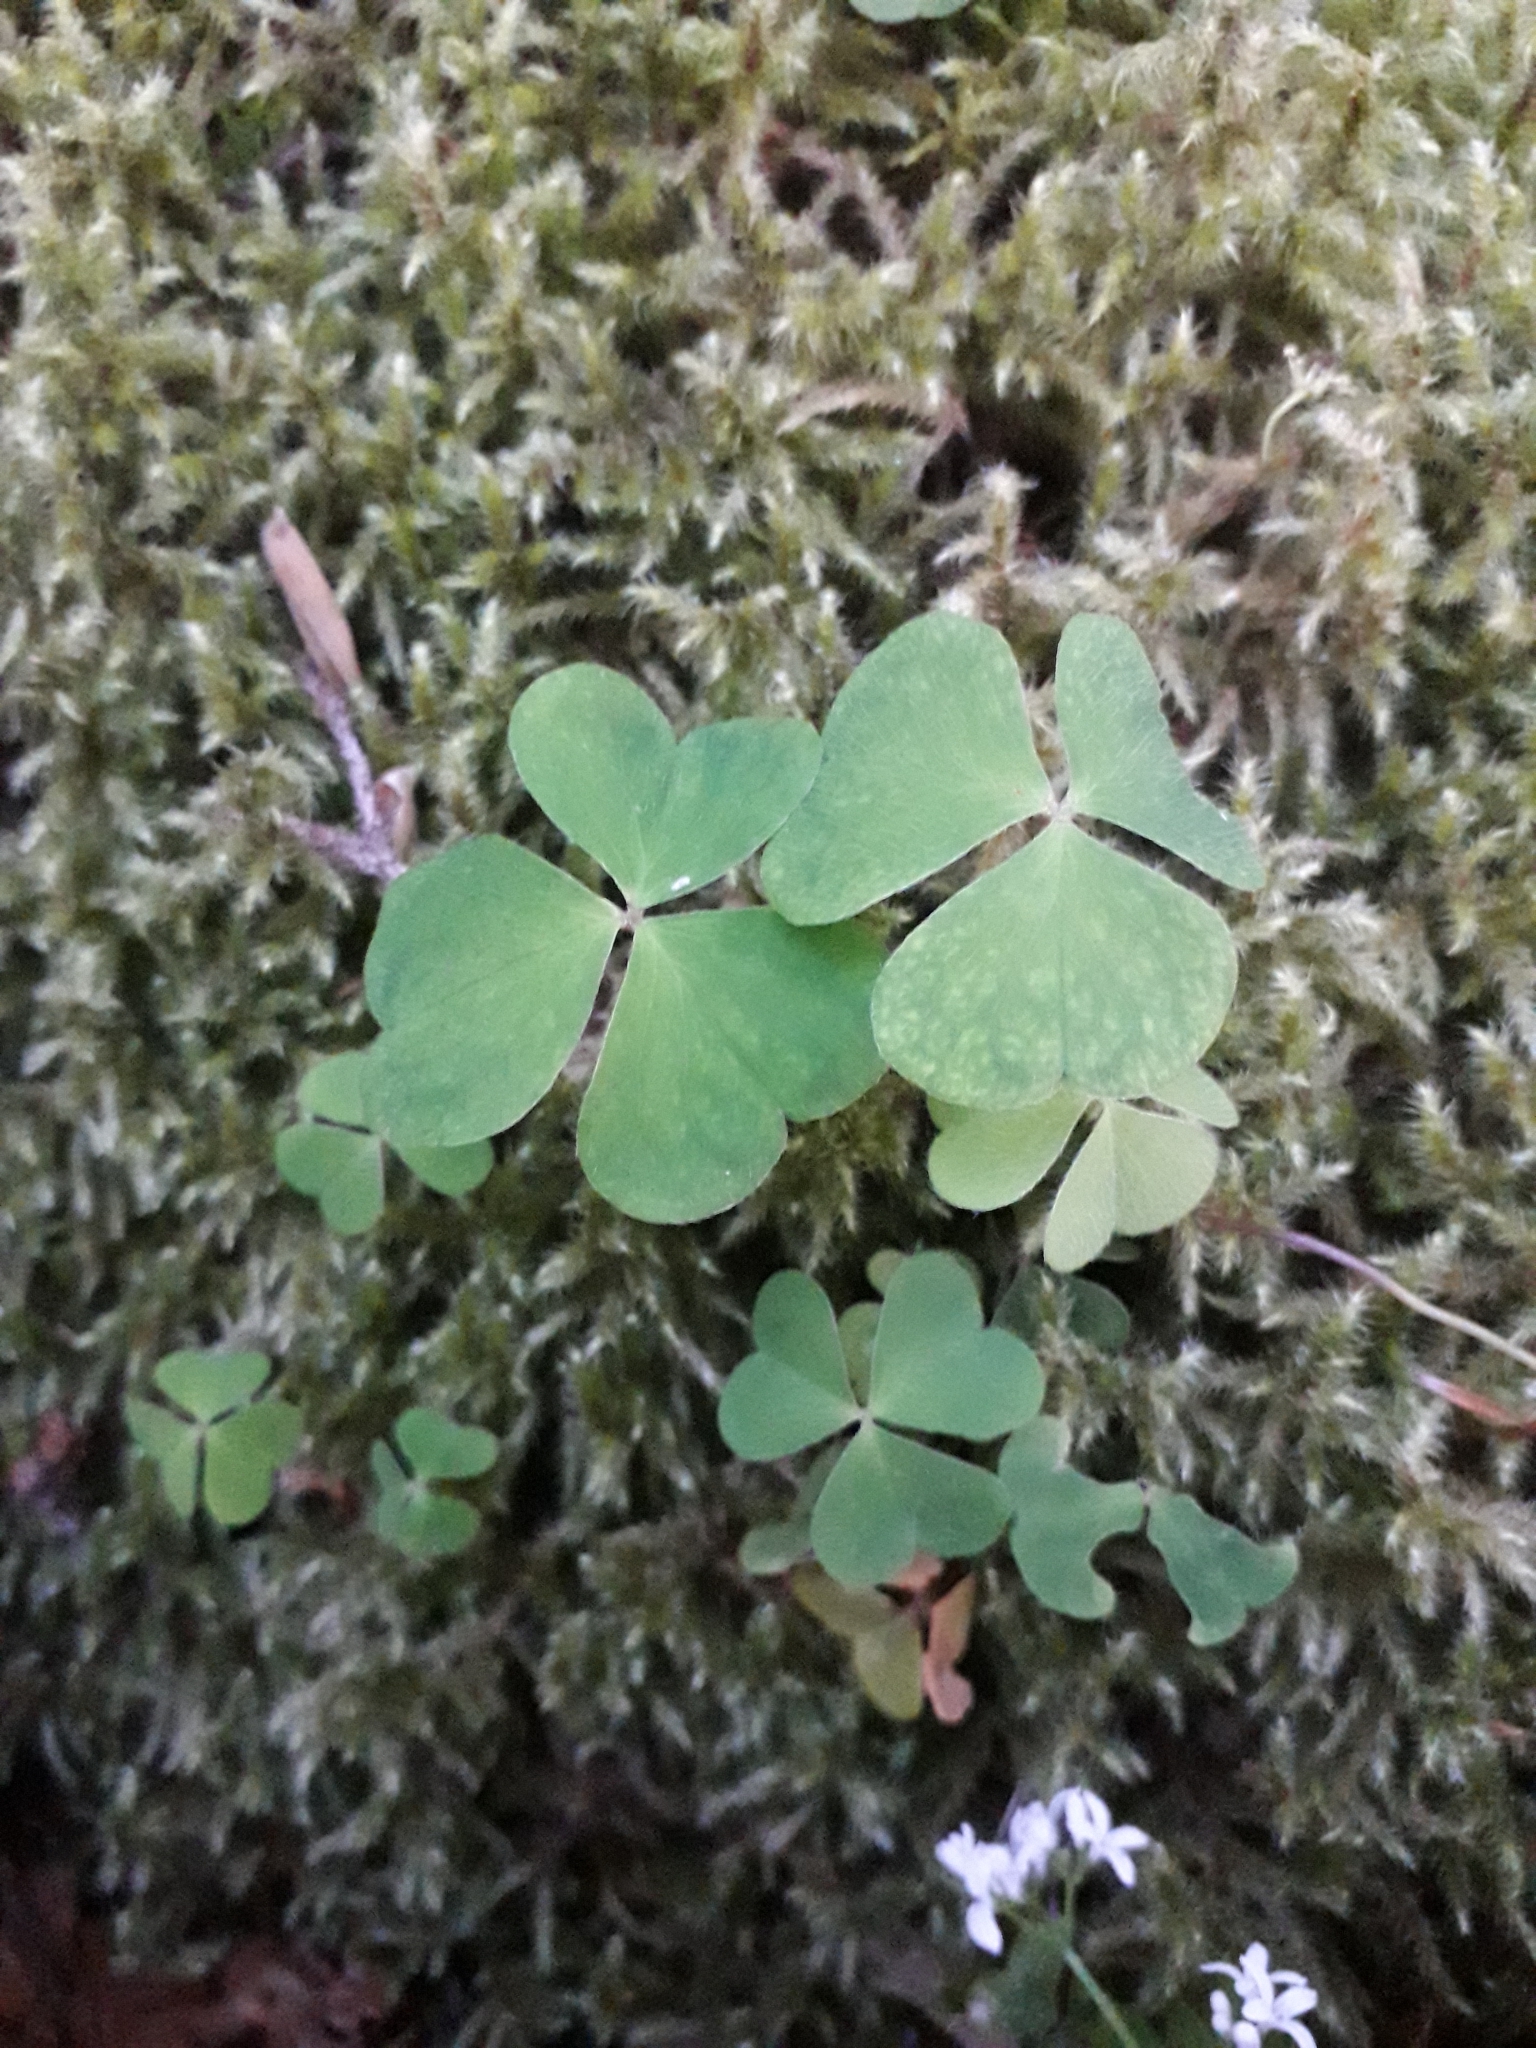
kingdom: Plantae
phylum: Tracheophyta
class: Magnoliopsida
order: Oxalidales
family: Oxalidaceae
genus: Oxalis
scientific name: Oxalis acetosella
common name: Wood-sorrel
